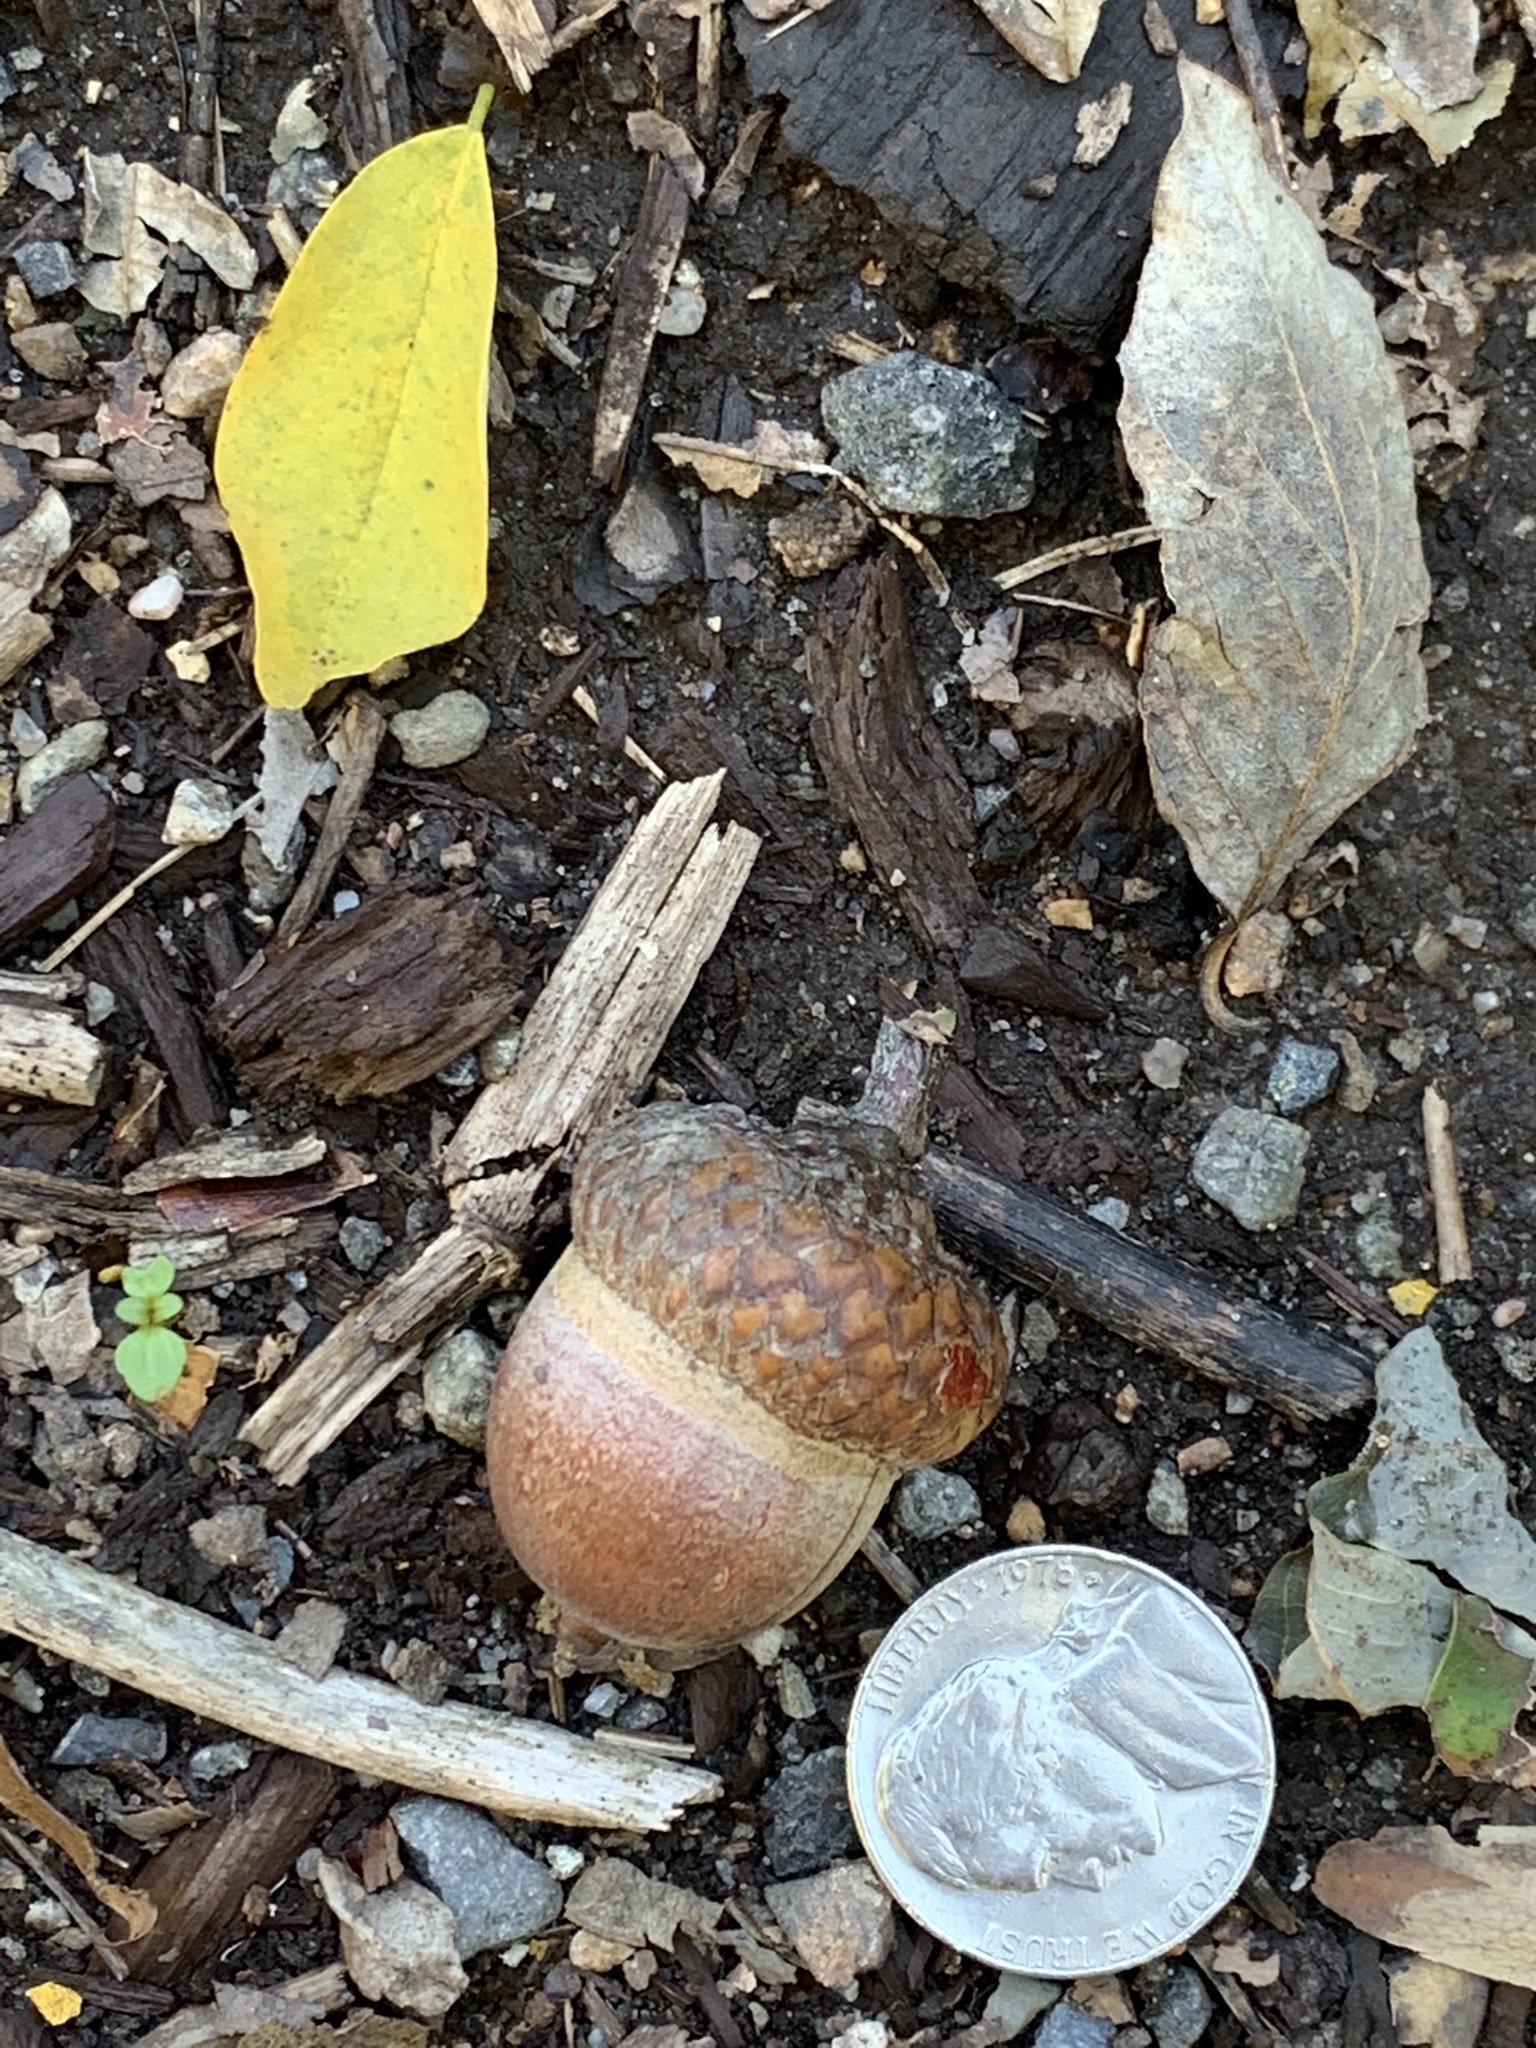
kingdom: Plantae
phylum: Tracheophyta
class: Magnoliopsida
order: Fagales
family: Fagaceae
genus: Quercus
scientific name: Quercus rubra
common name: Red oak
